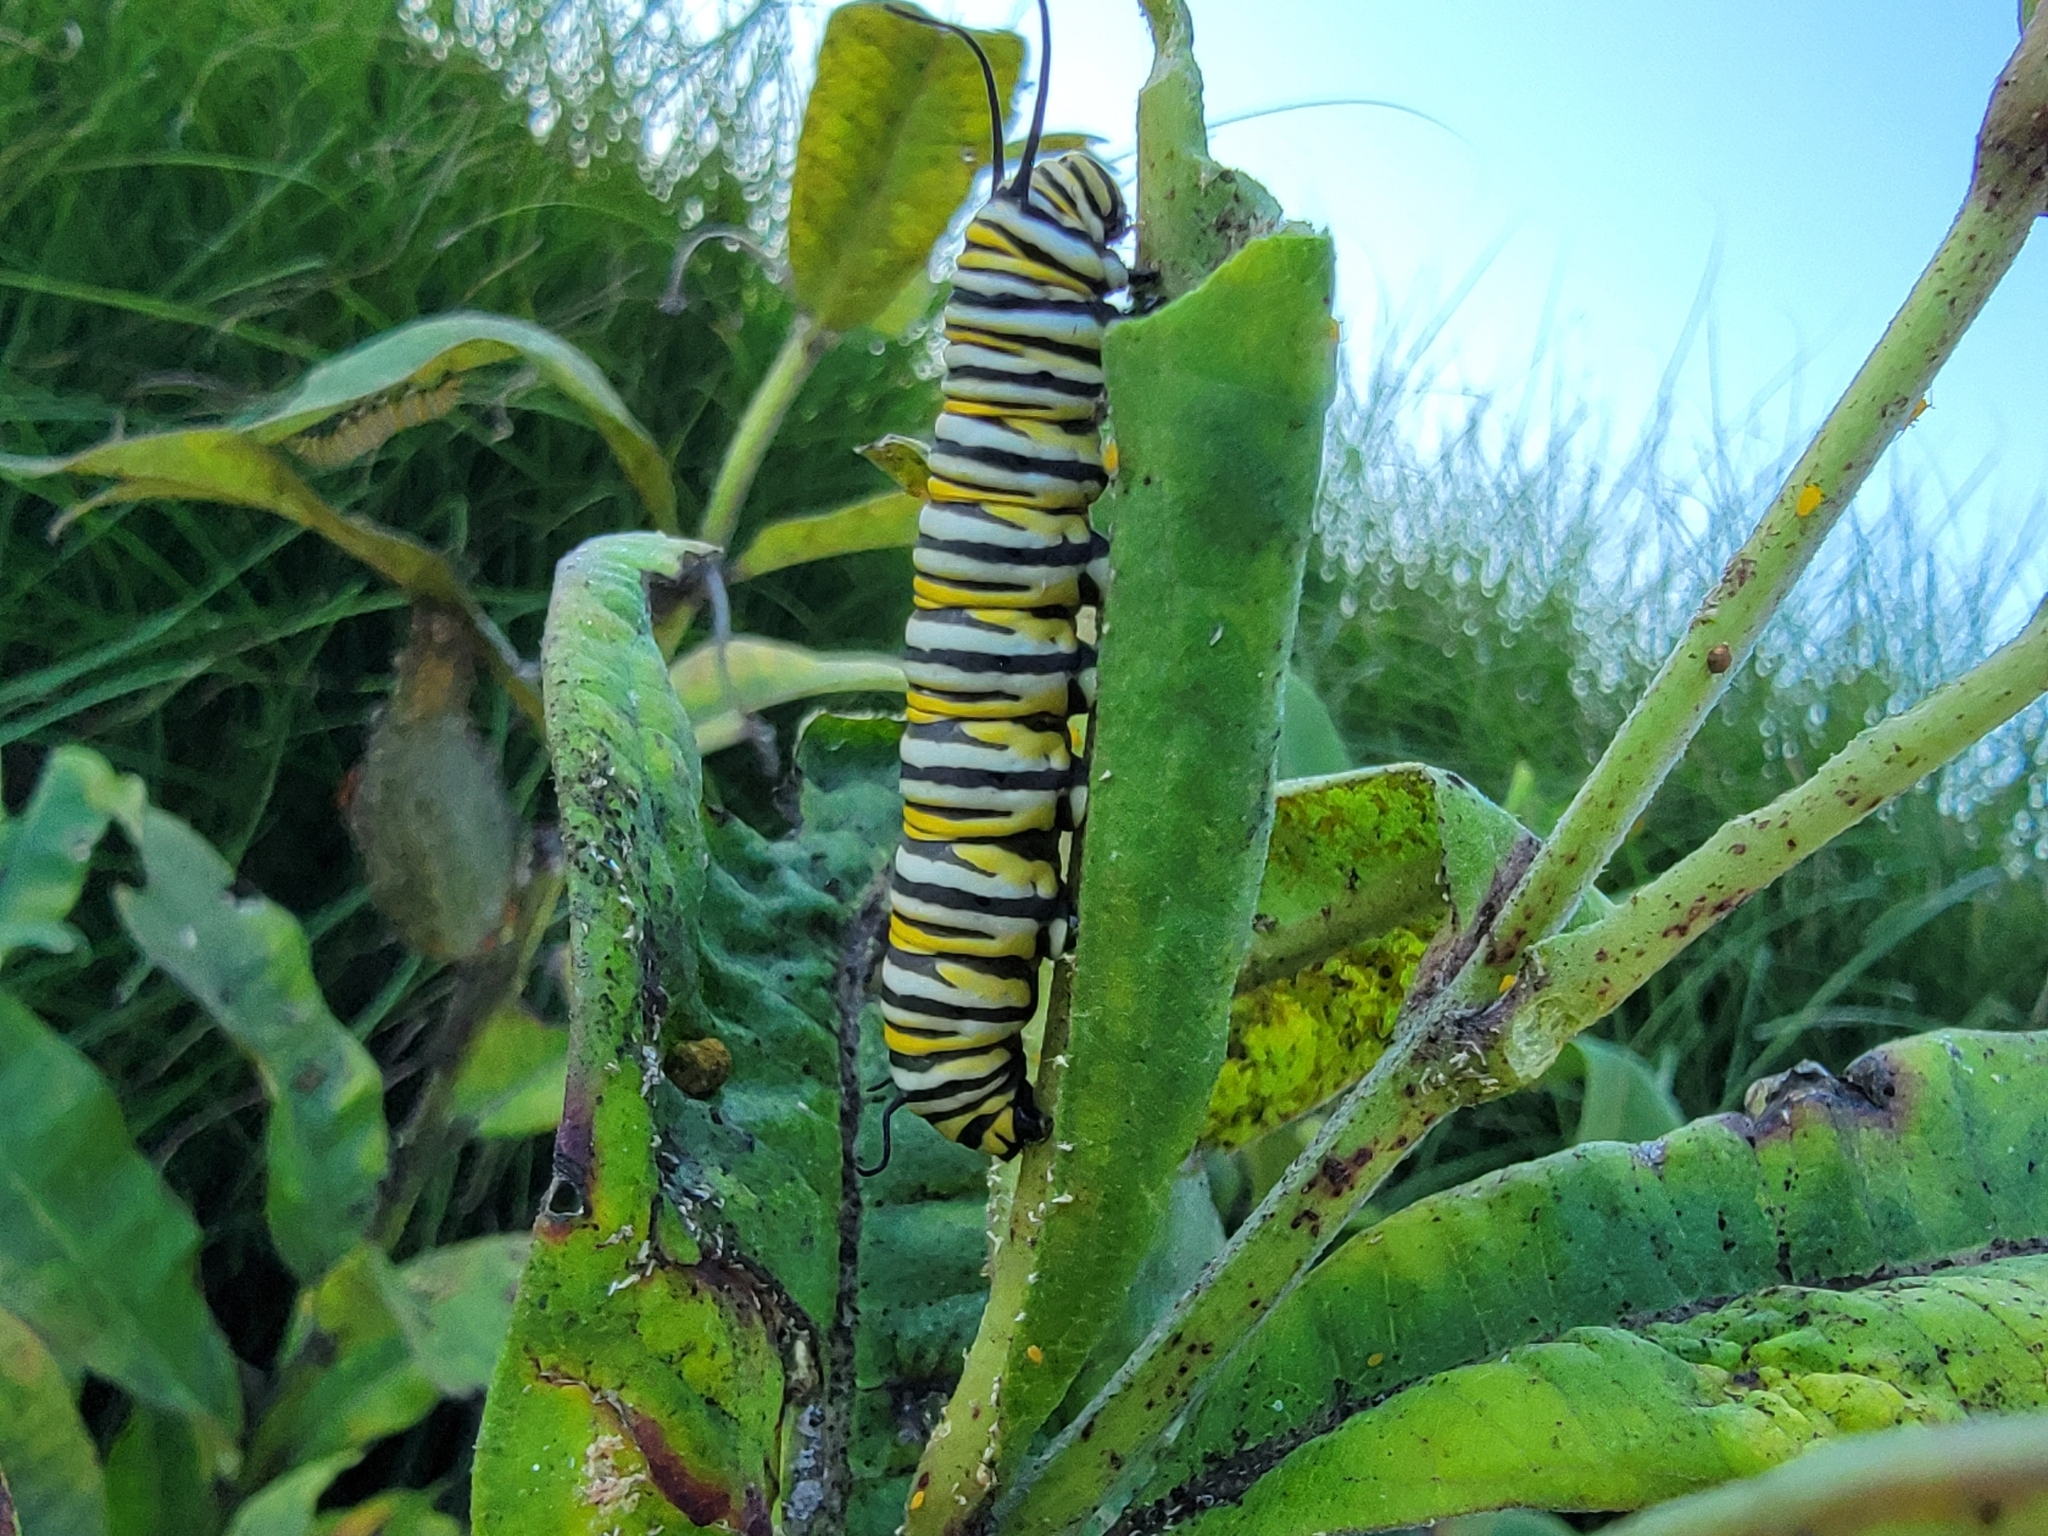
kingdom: Animalia
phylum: Arthropoda
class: Insecta
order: Lepidoptera
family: Nymphalidae
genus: Danaus
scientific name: Danaus plexippus
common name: Monarch
